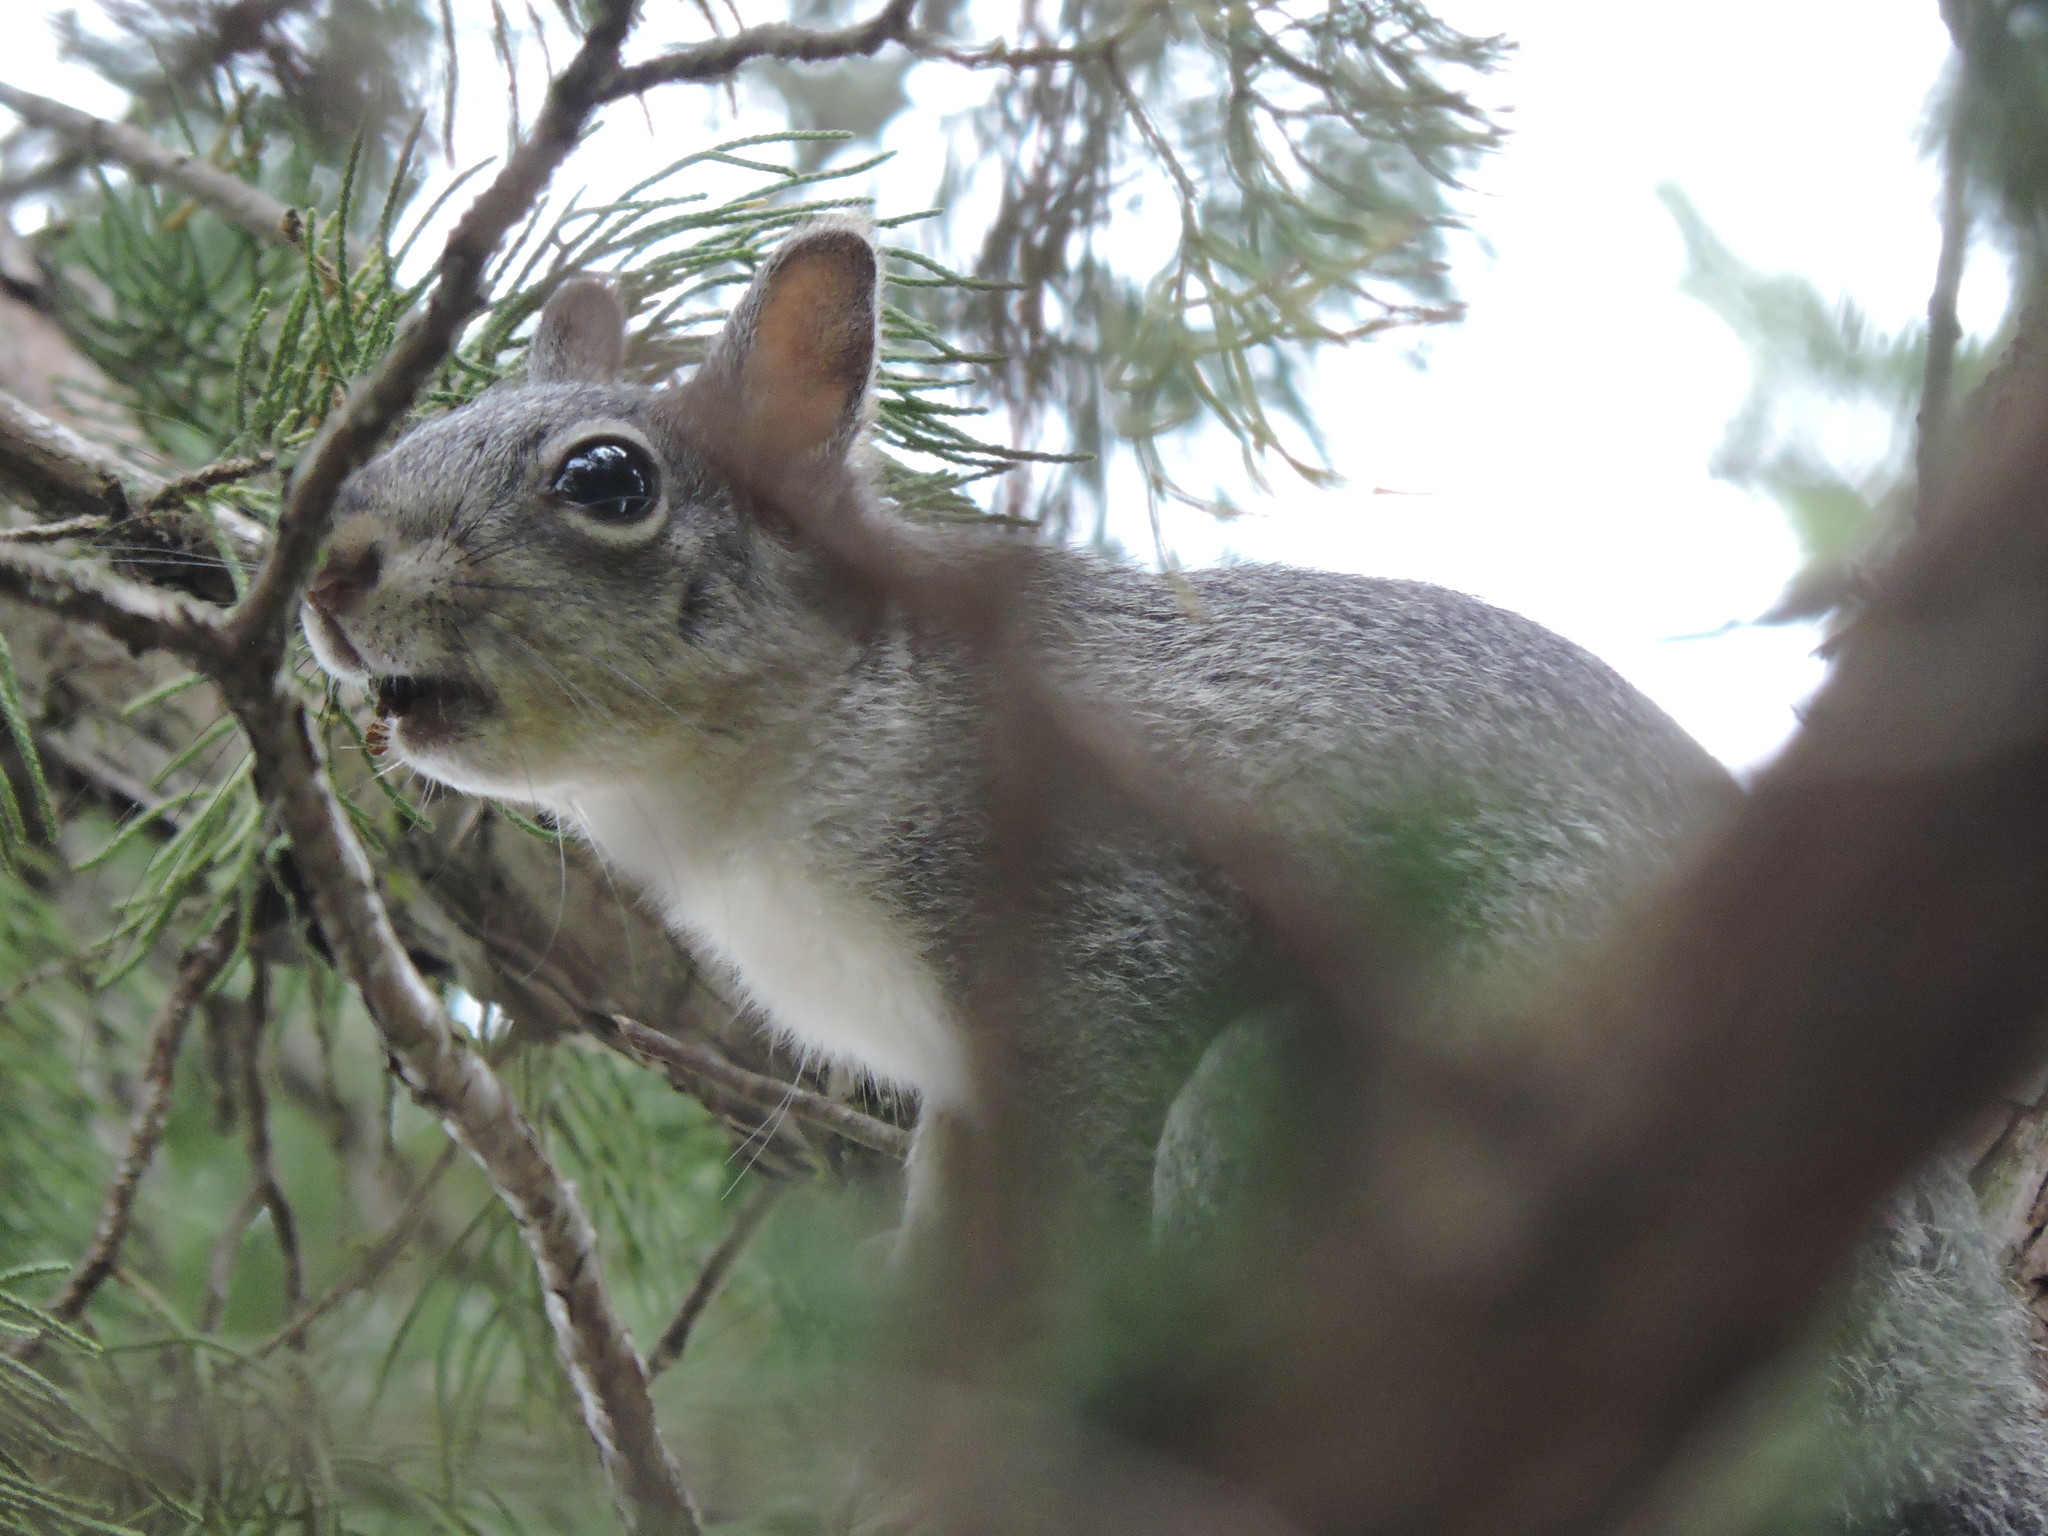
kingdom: Animalia
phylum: Chordata
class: Mammalia
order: Rodentia
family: Sciuridae
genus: Sciurus
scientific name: Sciurus griseus
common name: Western gray squirrel
